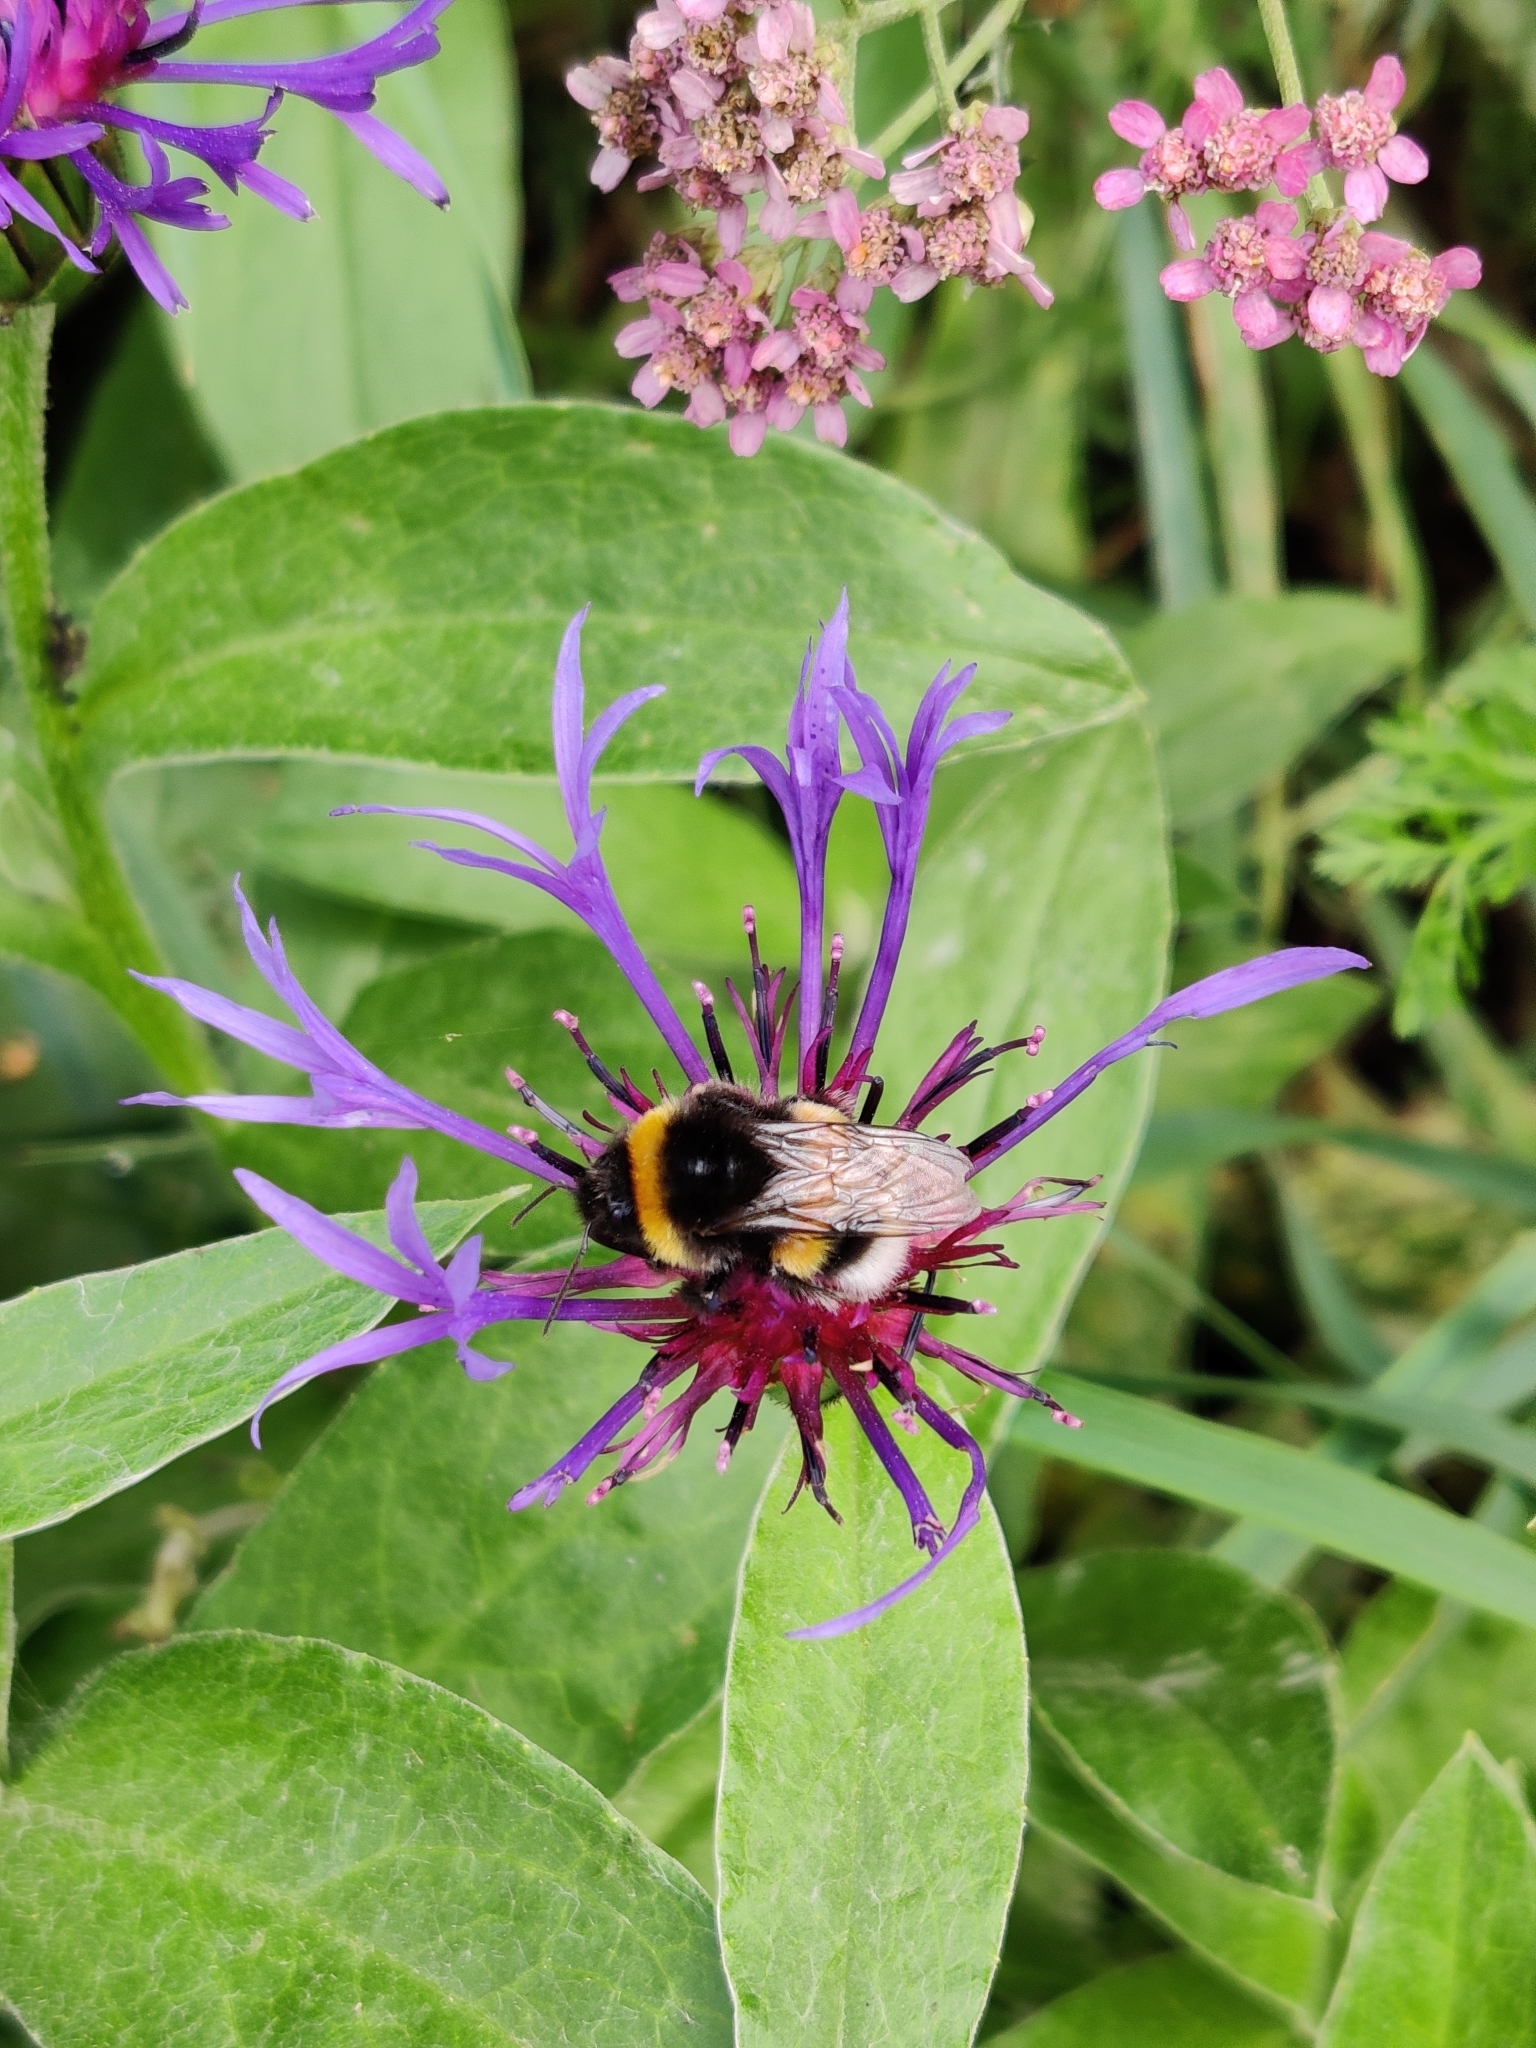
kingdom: Animalia
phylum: Arthropoda
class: Insecta
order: Hymenoptera
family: Apidae
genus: Bombus
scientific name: Bombus
